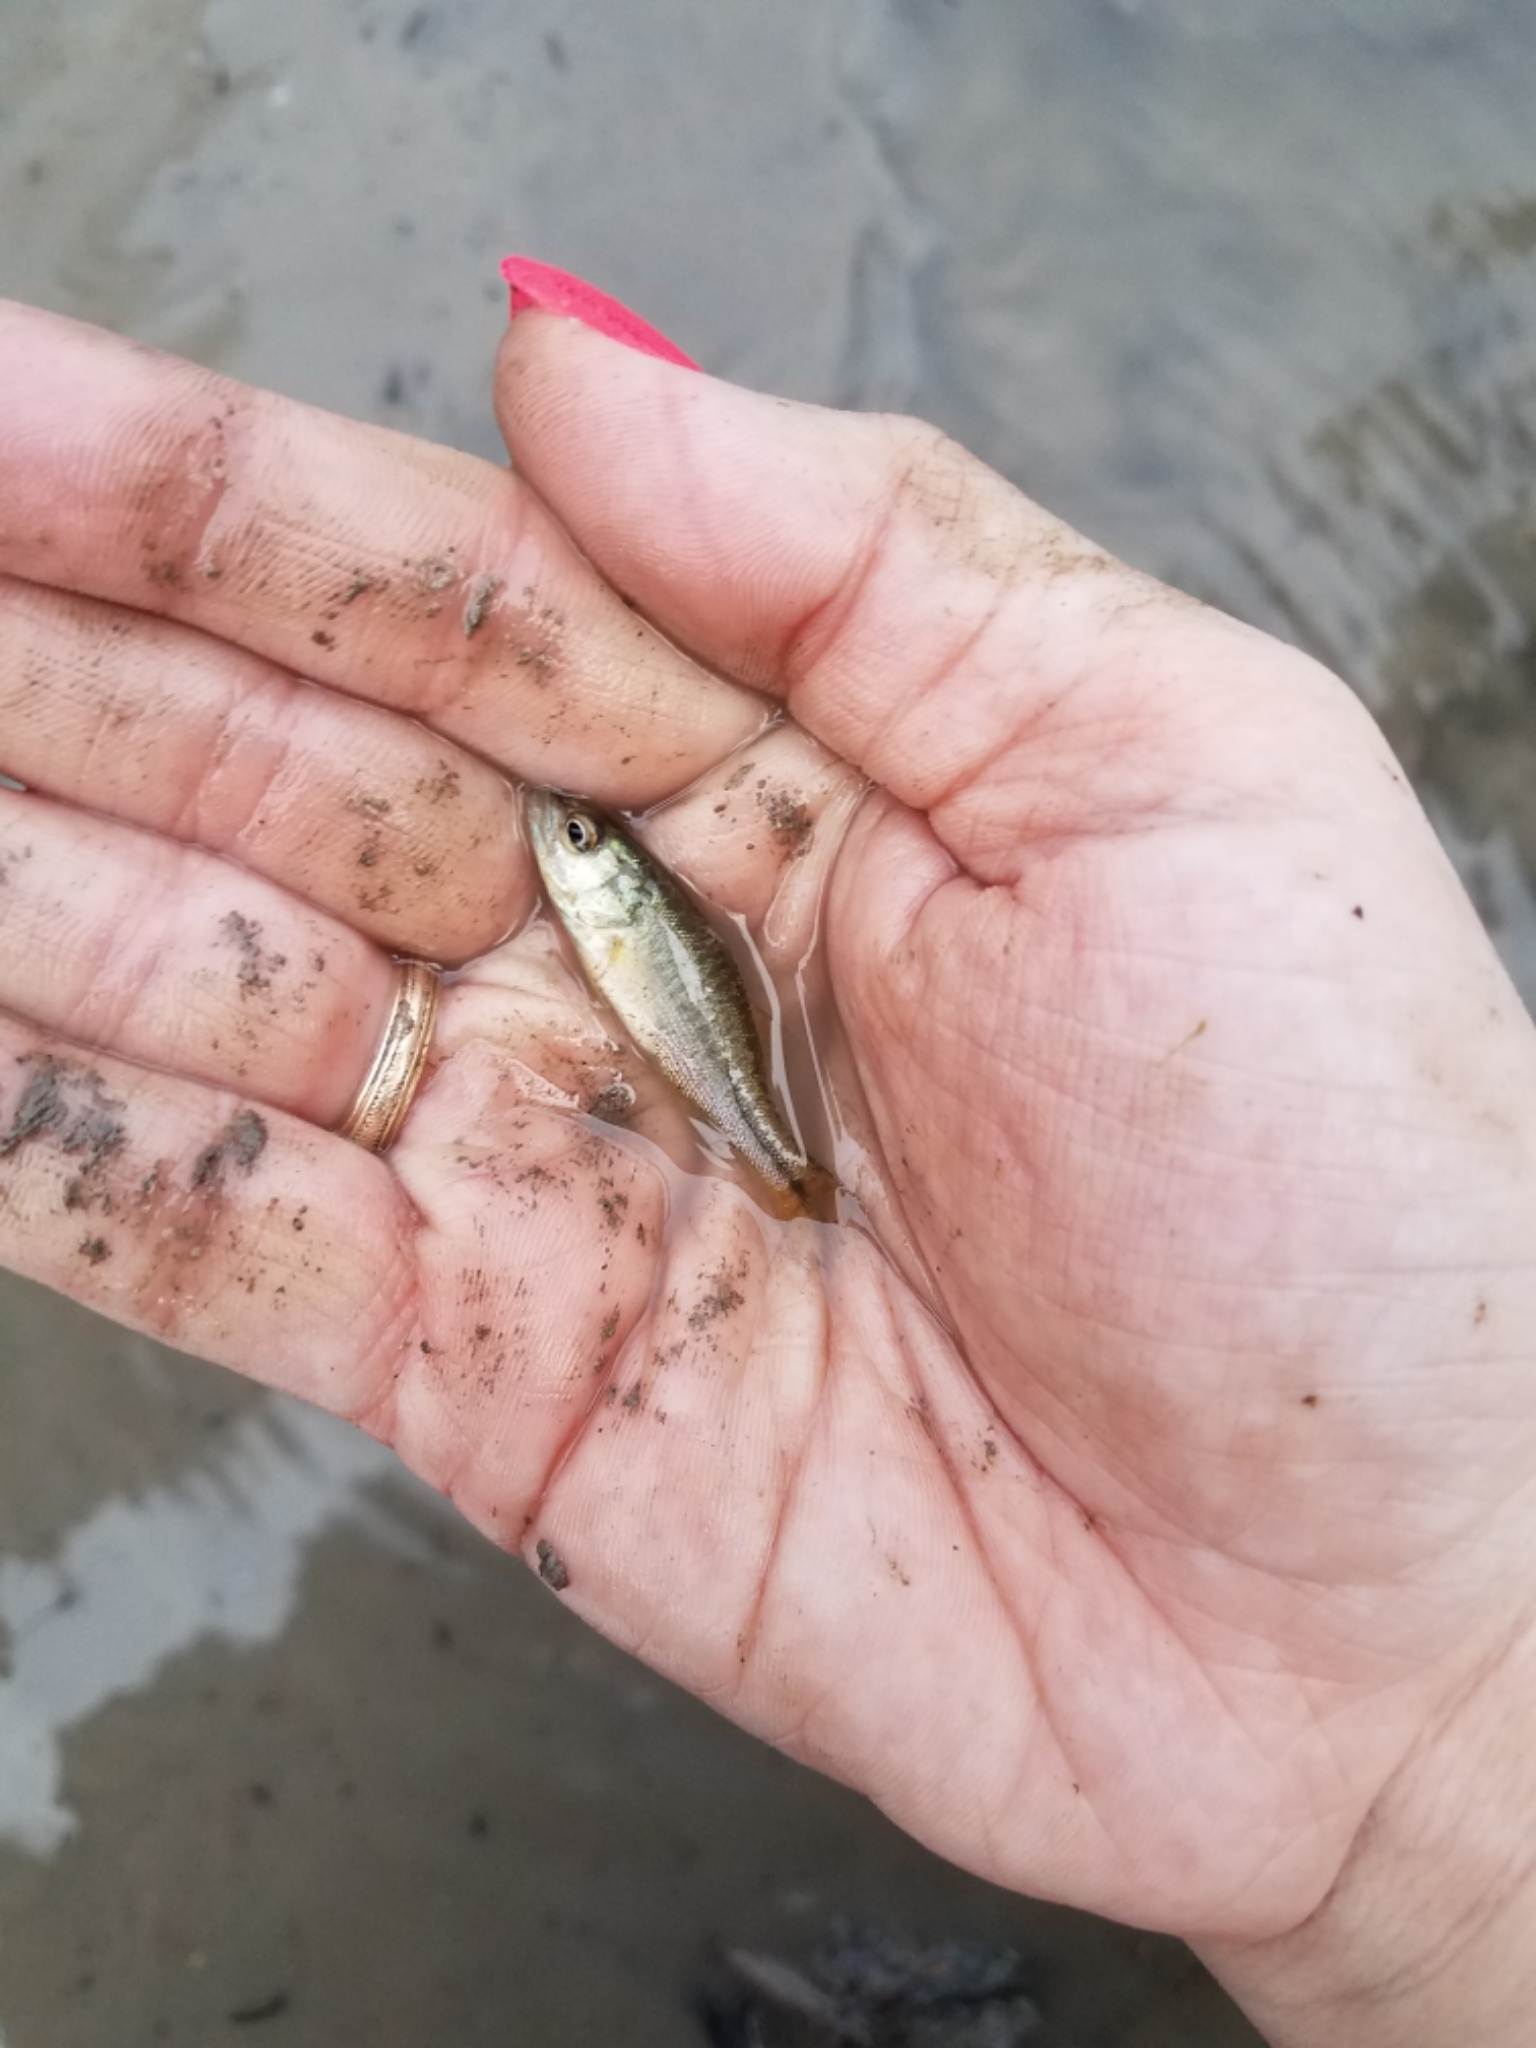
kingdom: Animalia
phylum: Chordata
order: Perciformes
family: Centrarchidae
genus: Micropterus
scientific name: Micropterus
